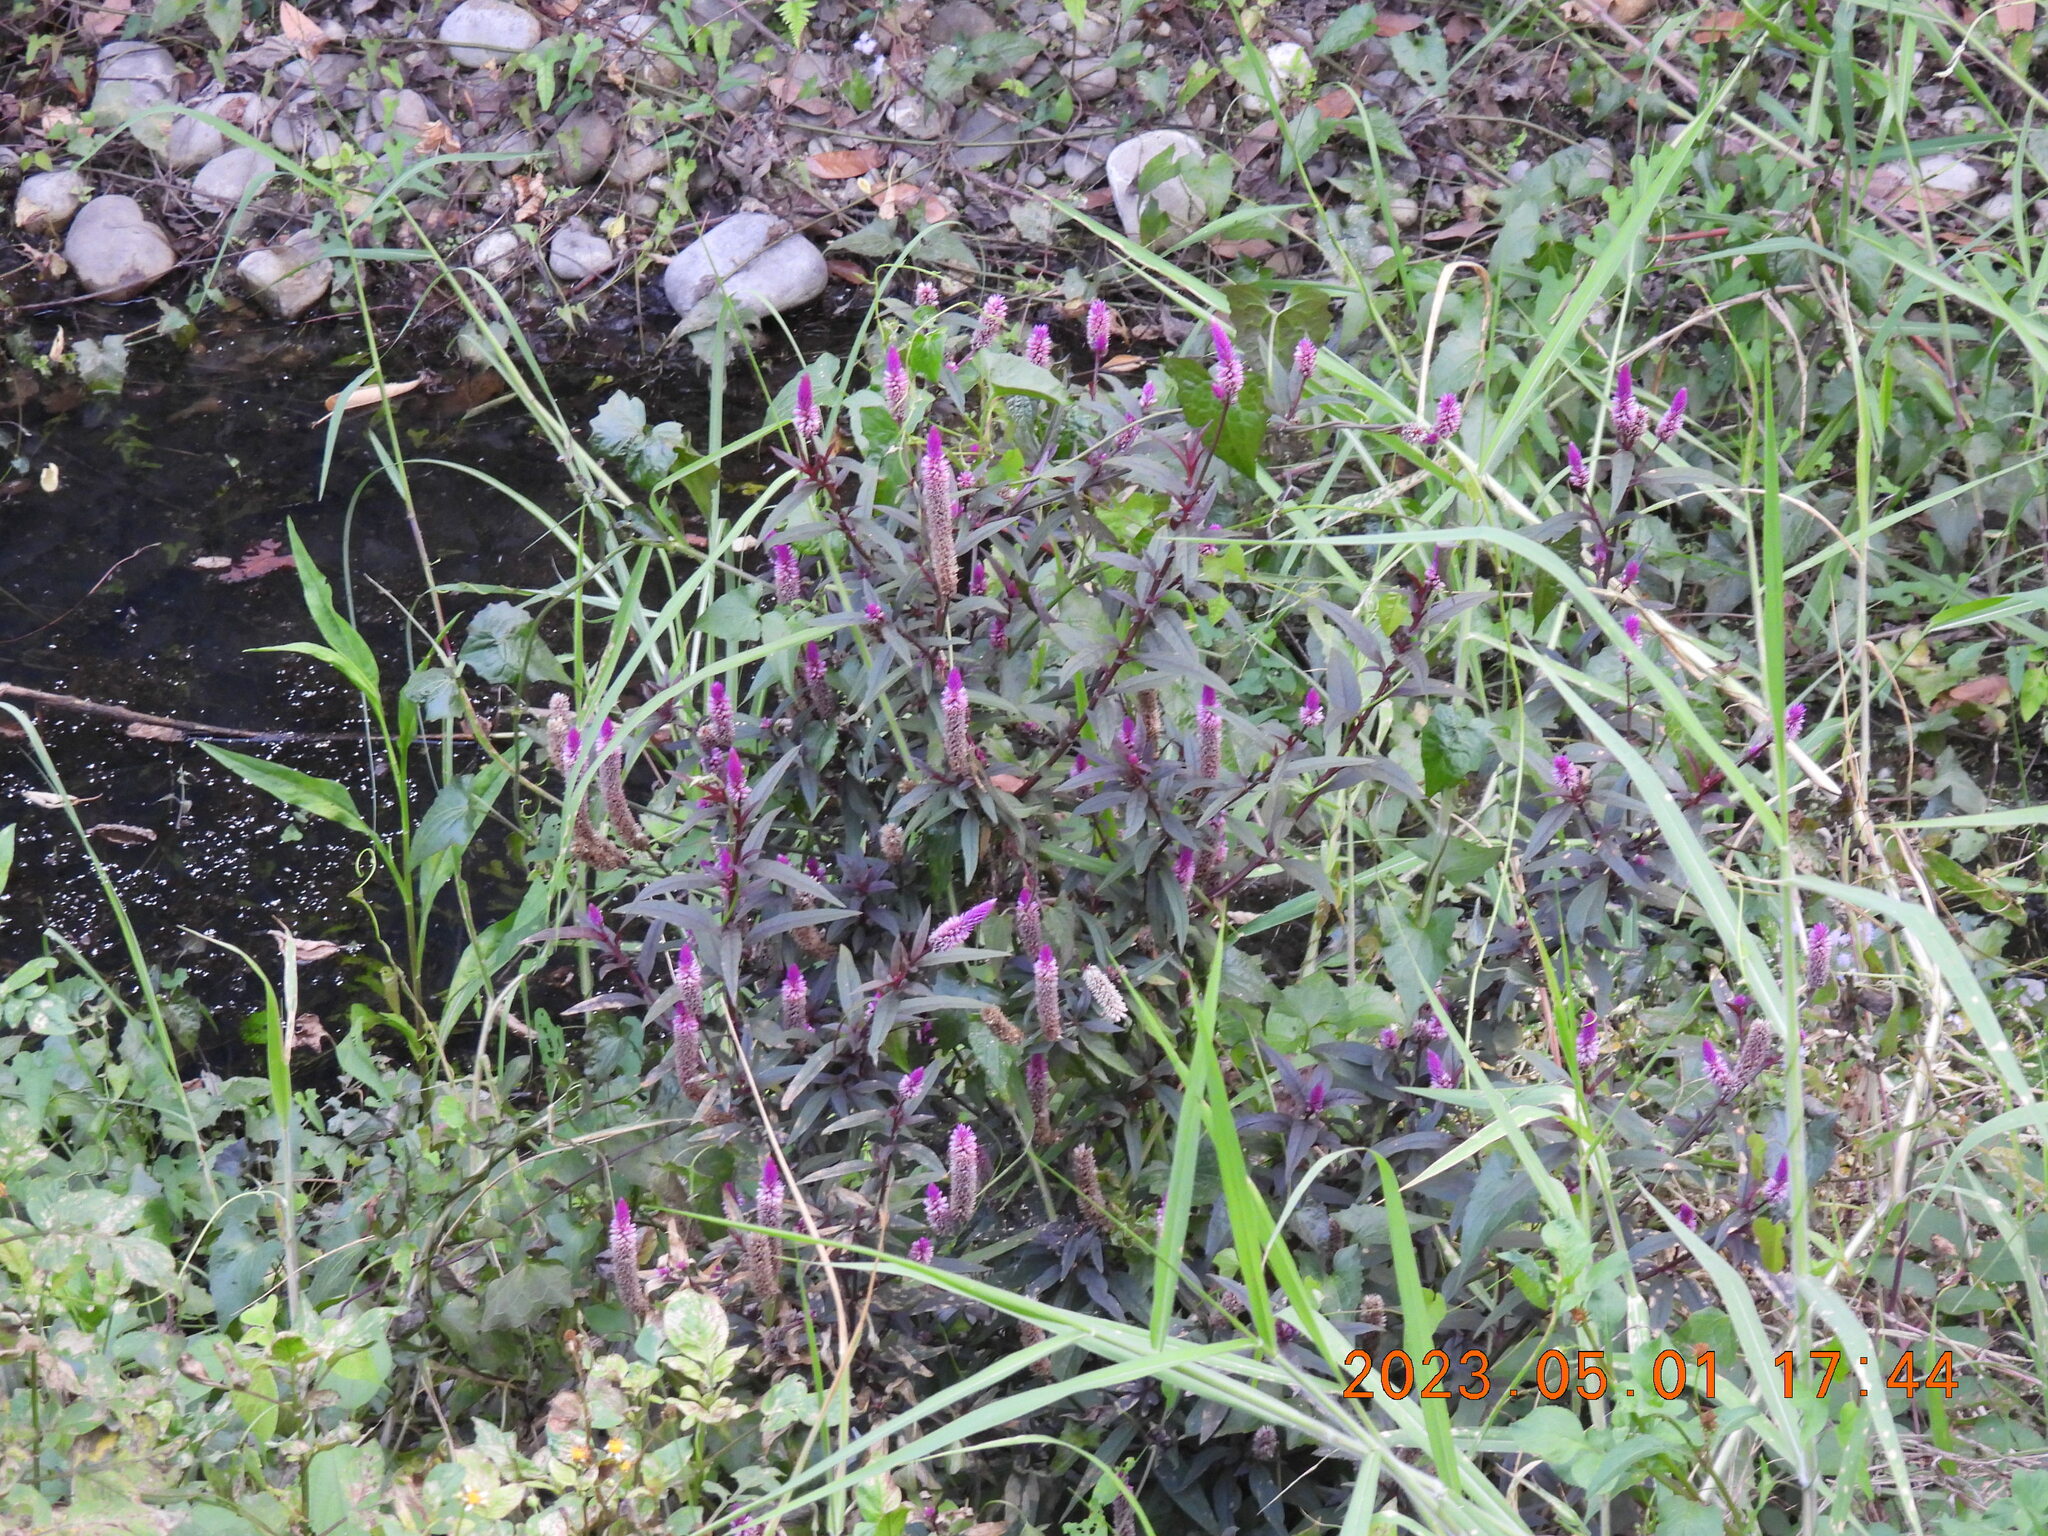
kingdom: Plantae
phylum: Tracheophyta
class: Magnoliopsida
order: Caryophyllales
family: Amaranthaceae
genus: Celosia
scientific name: Celosia argentea
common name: Feather cockscomb
